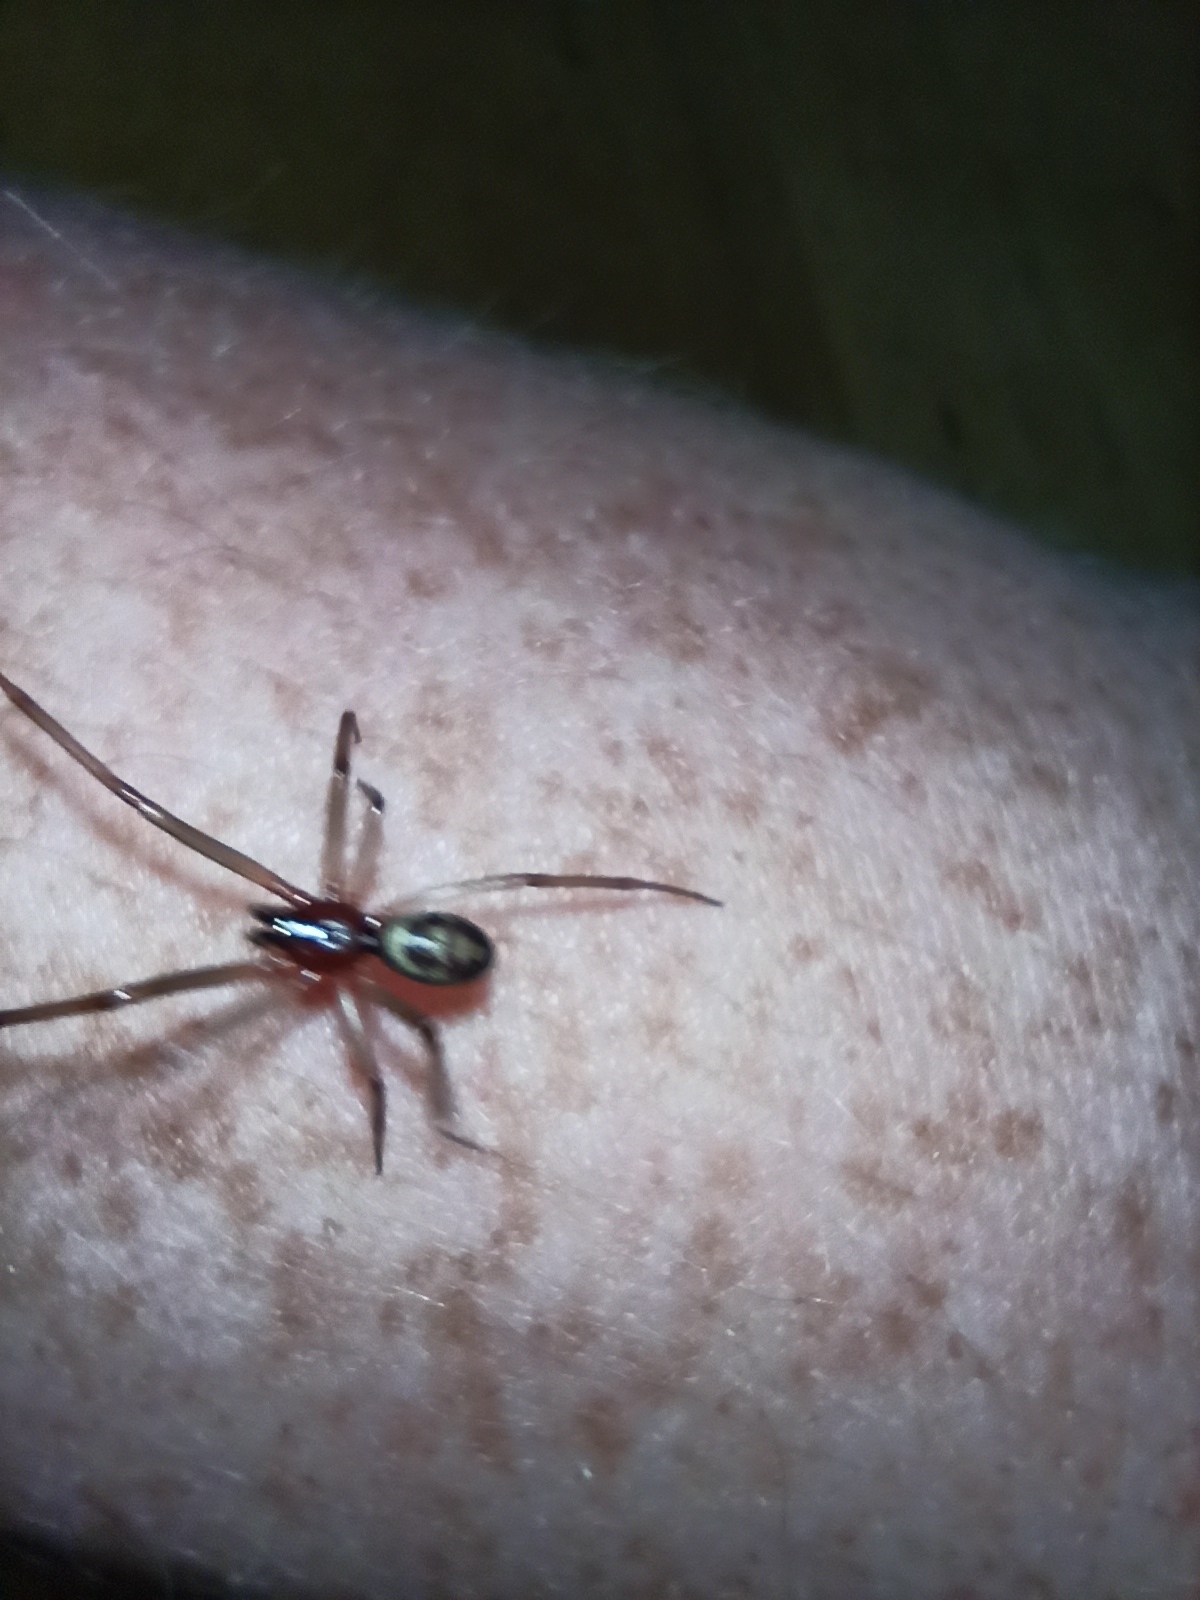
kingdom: Animalia
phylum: Arthropoda
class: Arachnida
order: Araneae
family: Theridiidae
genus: Steatoda
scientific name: Steatoda grossa
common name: False black widow
